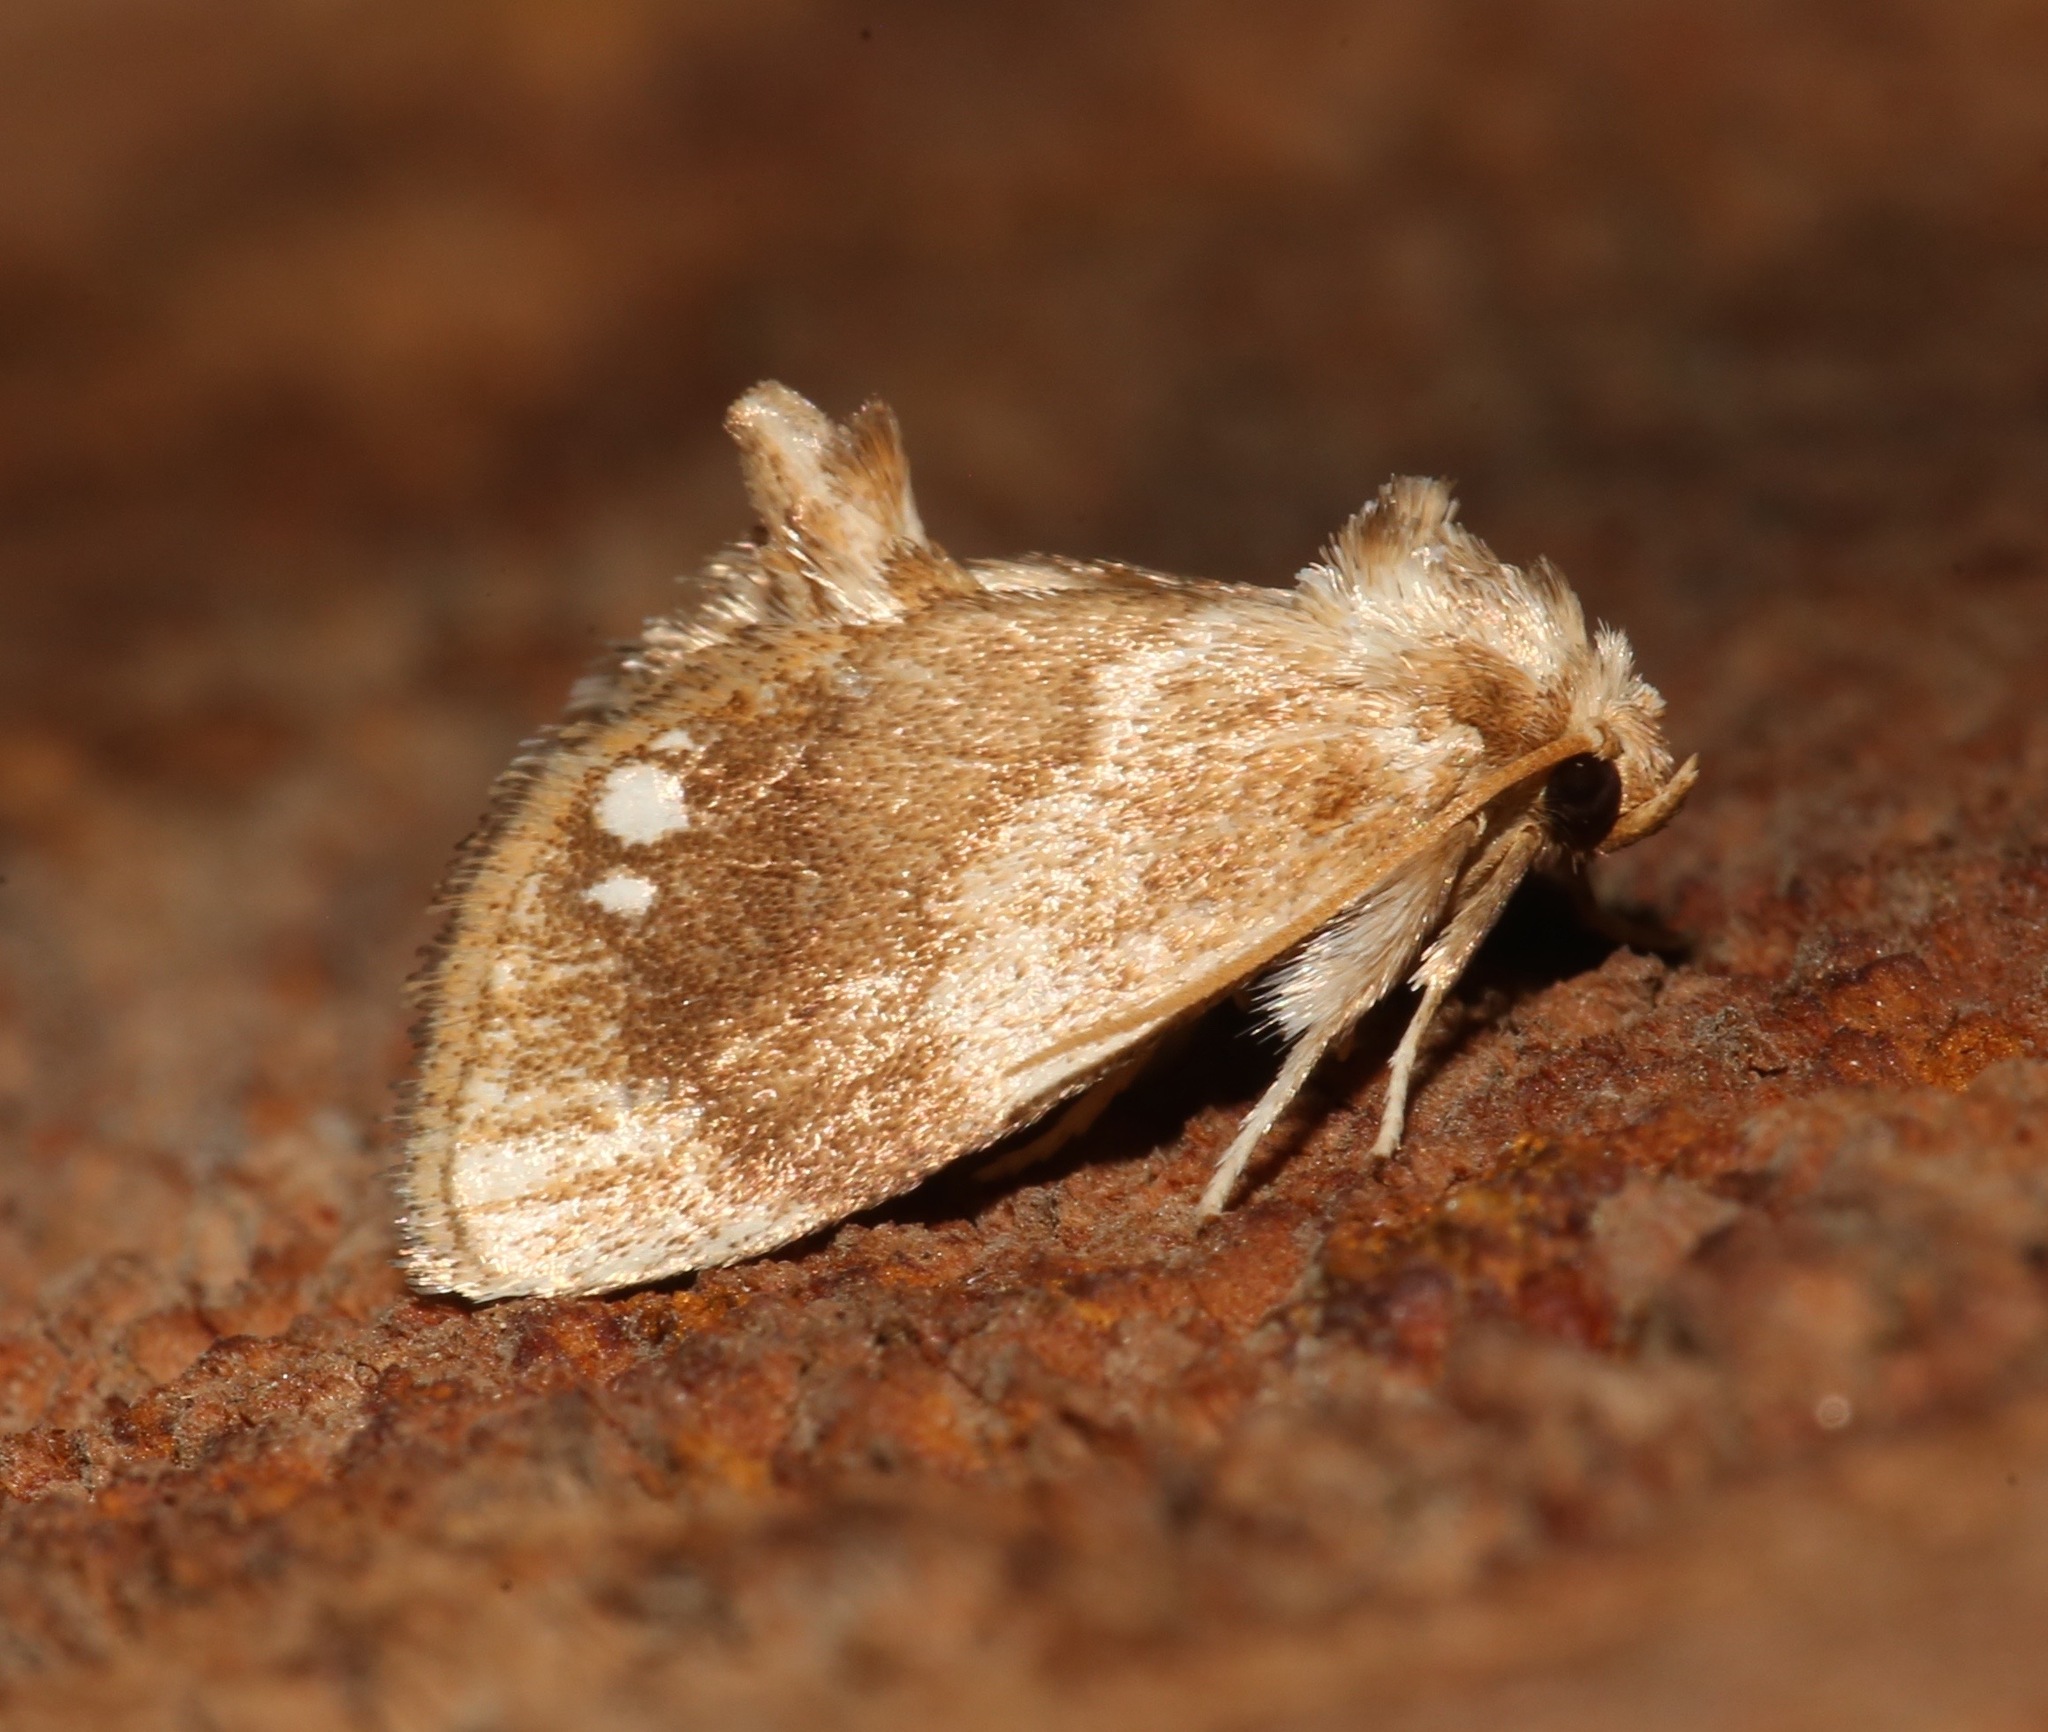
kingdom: Animalia
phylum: Arthropoda
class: Insecta
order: Lepidoptera
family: Limacodidae
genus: Packardia
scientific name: Packardia geminata
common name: Jeweled tailed slug moth
